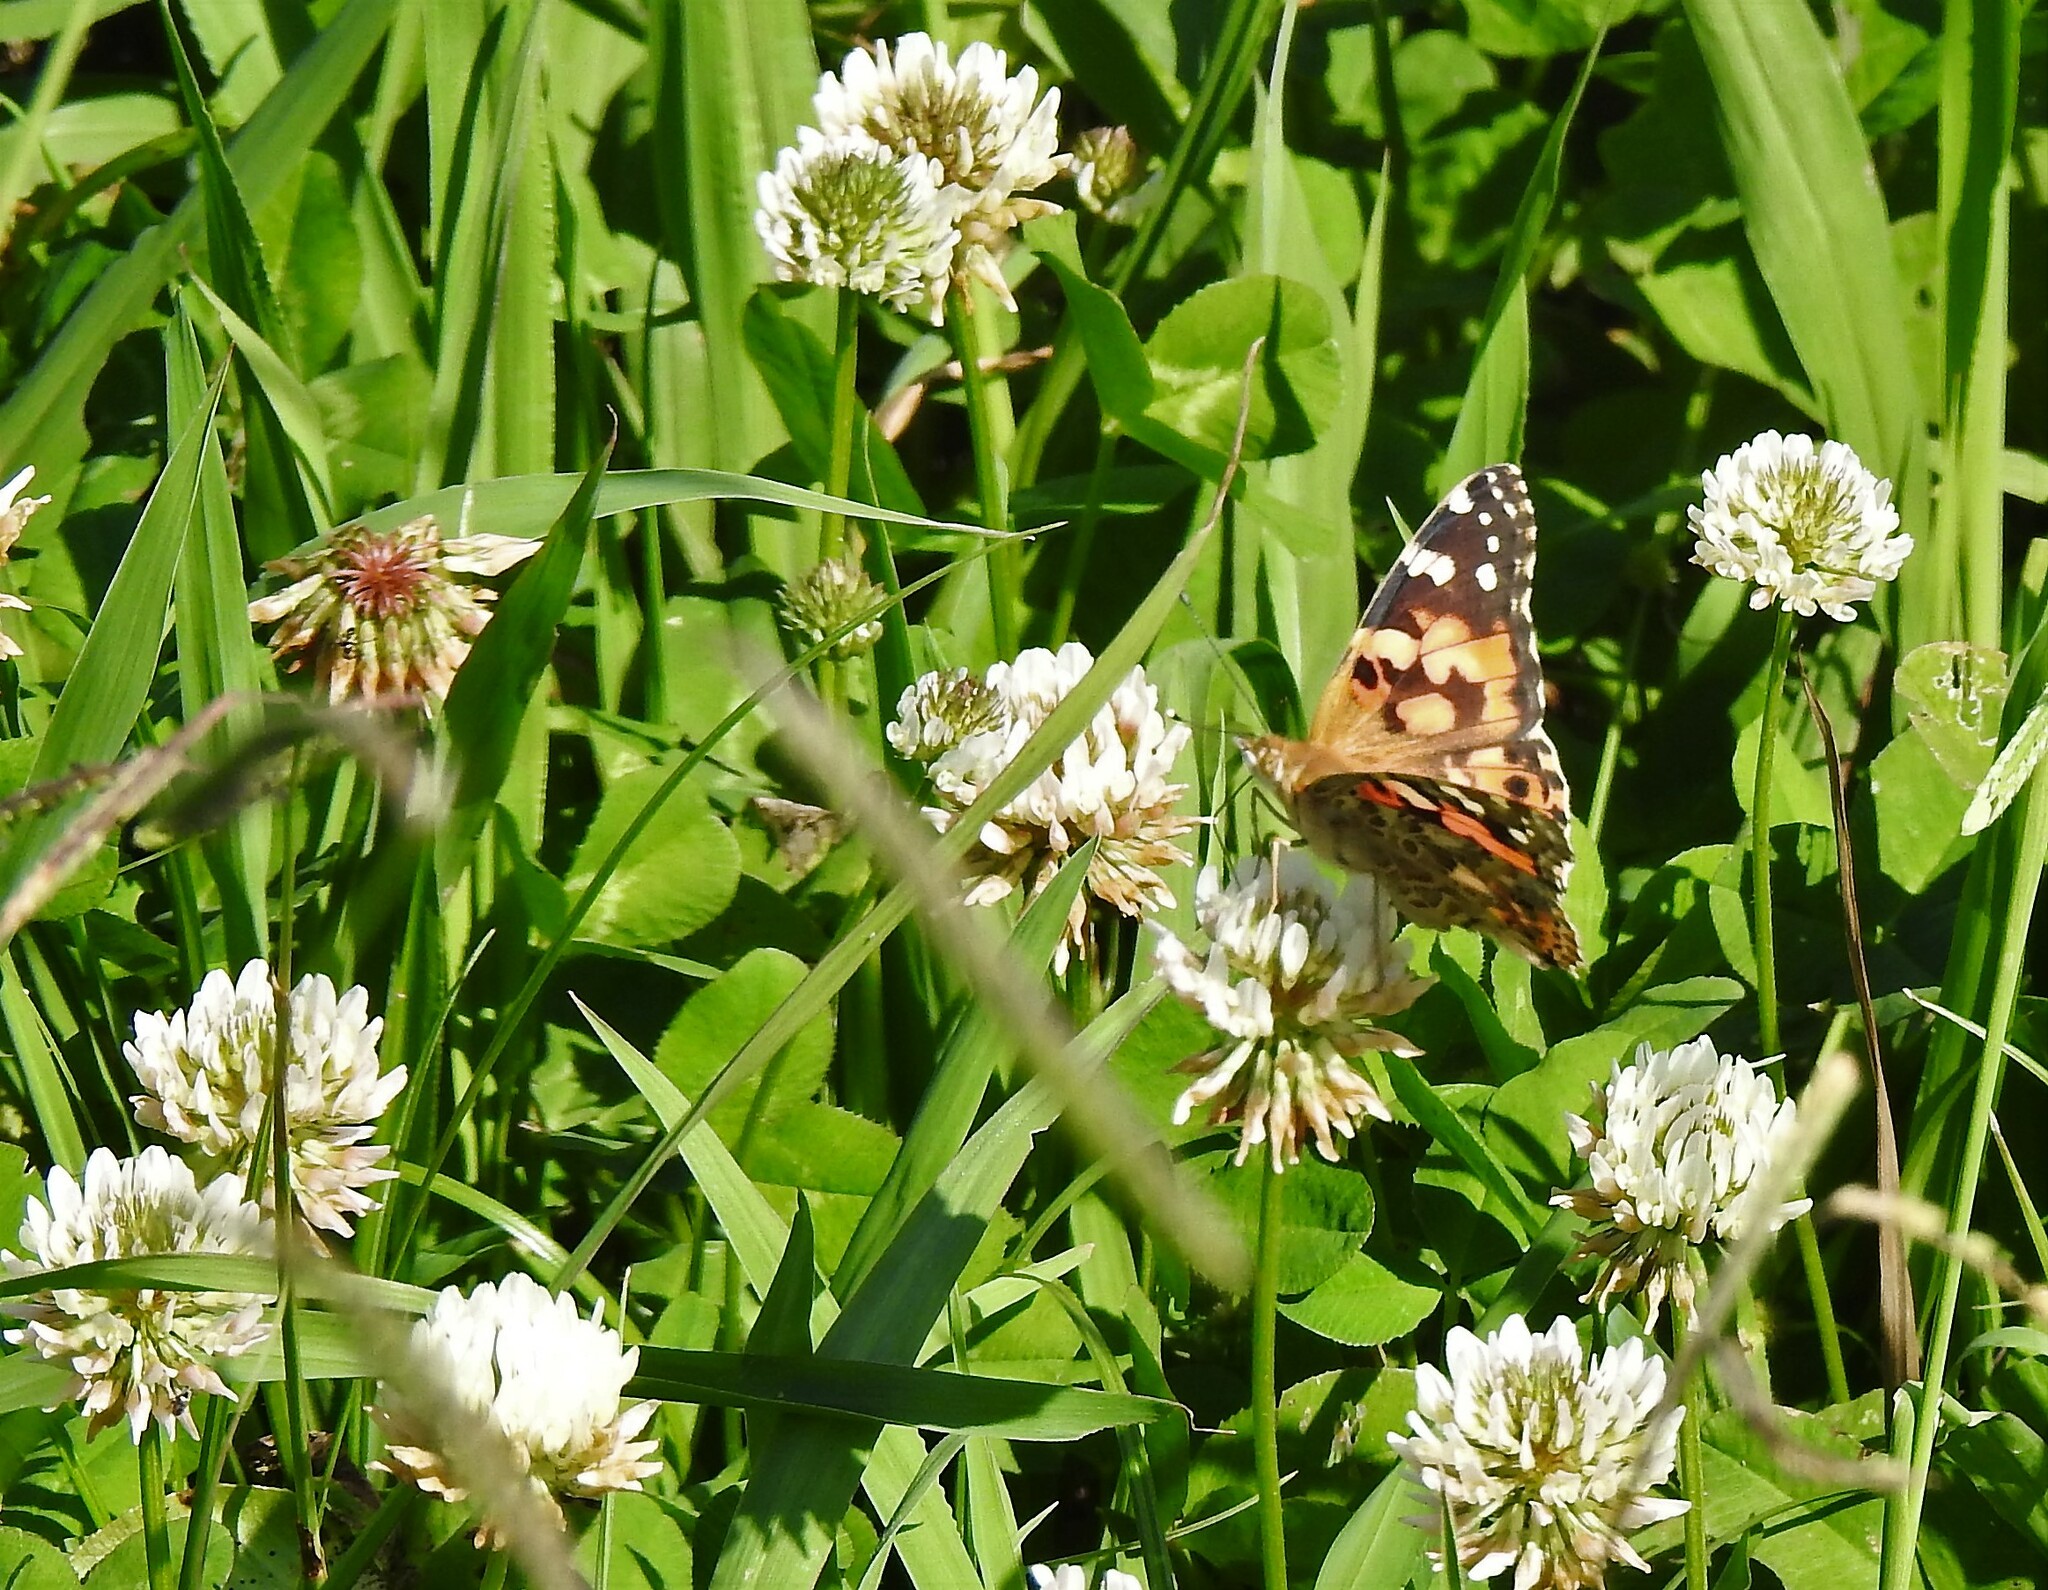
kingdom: Animalia
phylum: Arthropoda
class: Insecta
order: Lepidoptera
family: Nymphalidae
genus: Vanessa
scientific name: Vanessa cardui
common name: Painted lady
